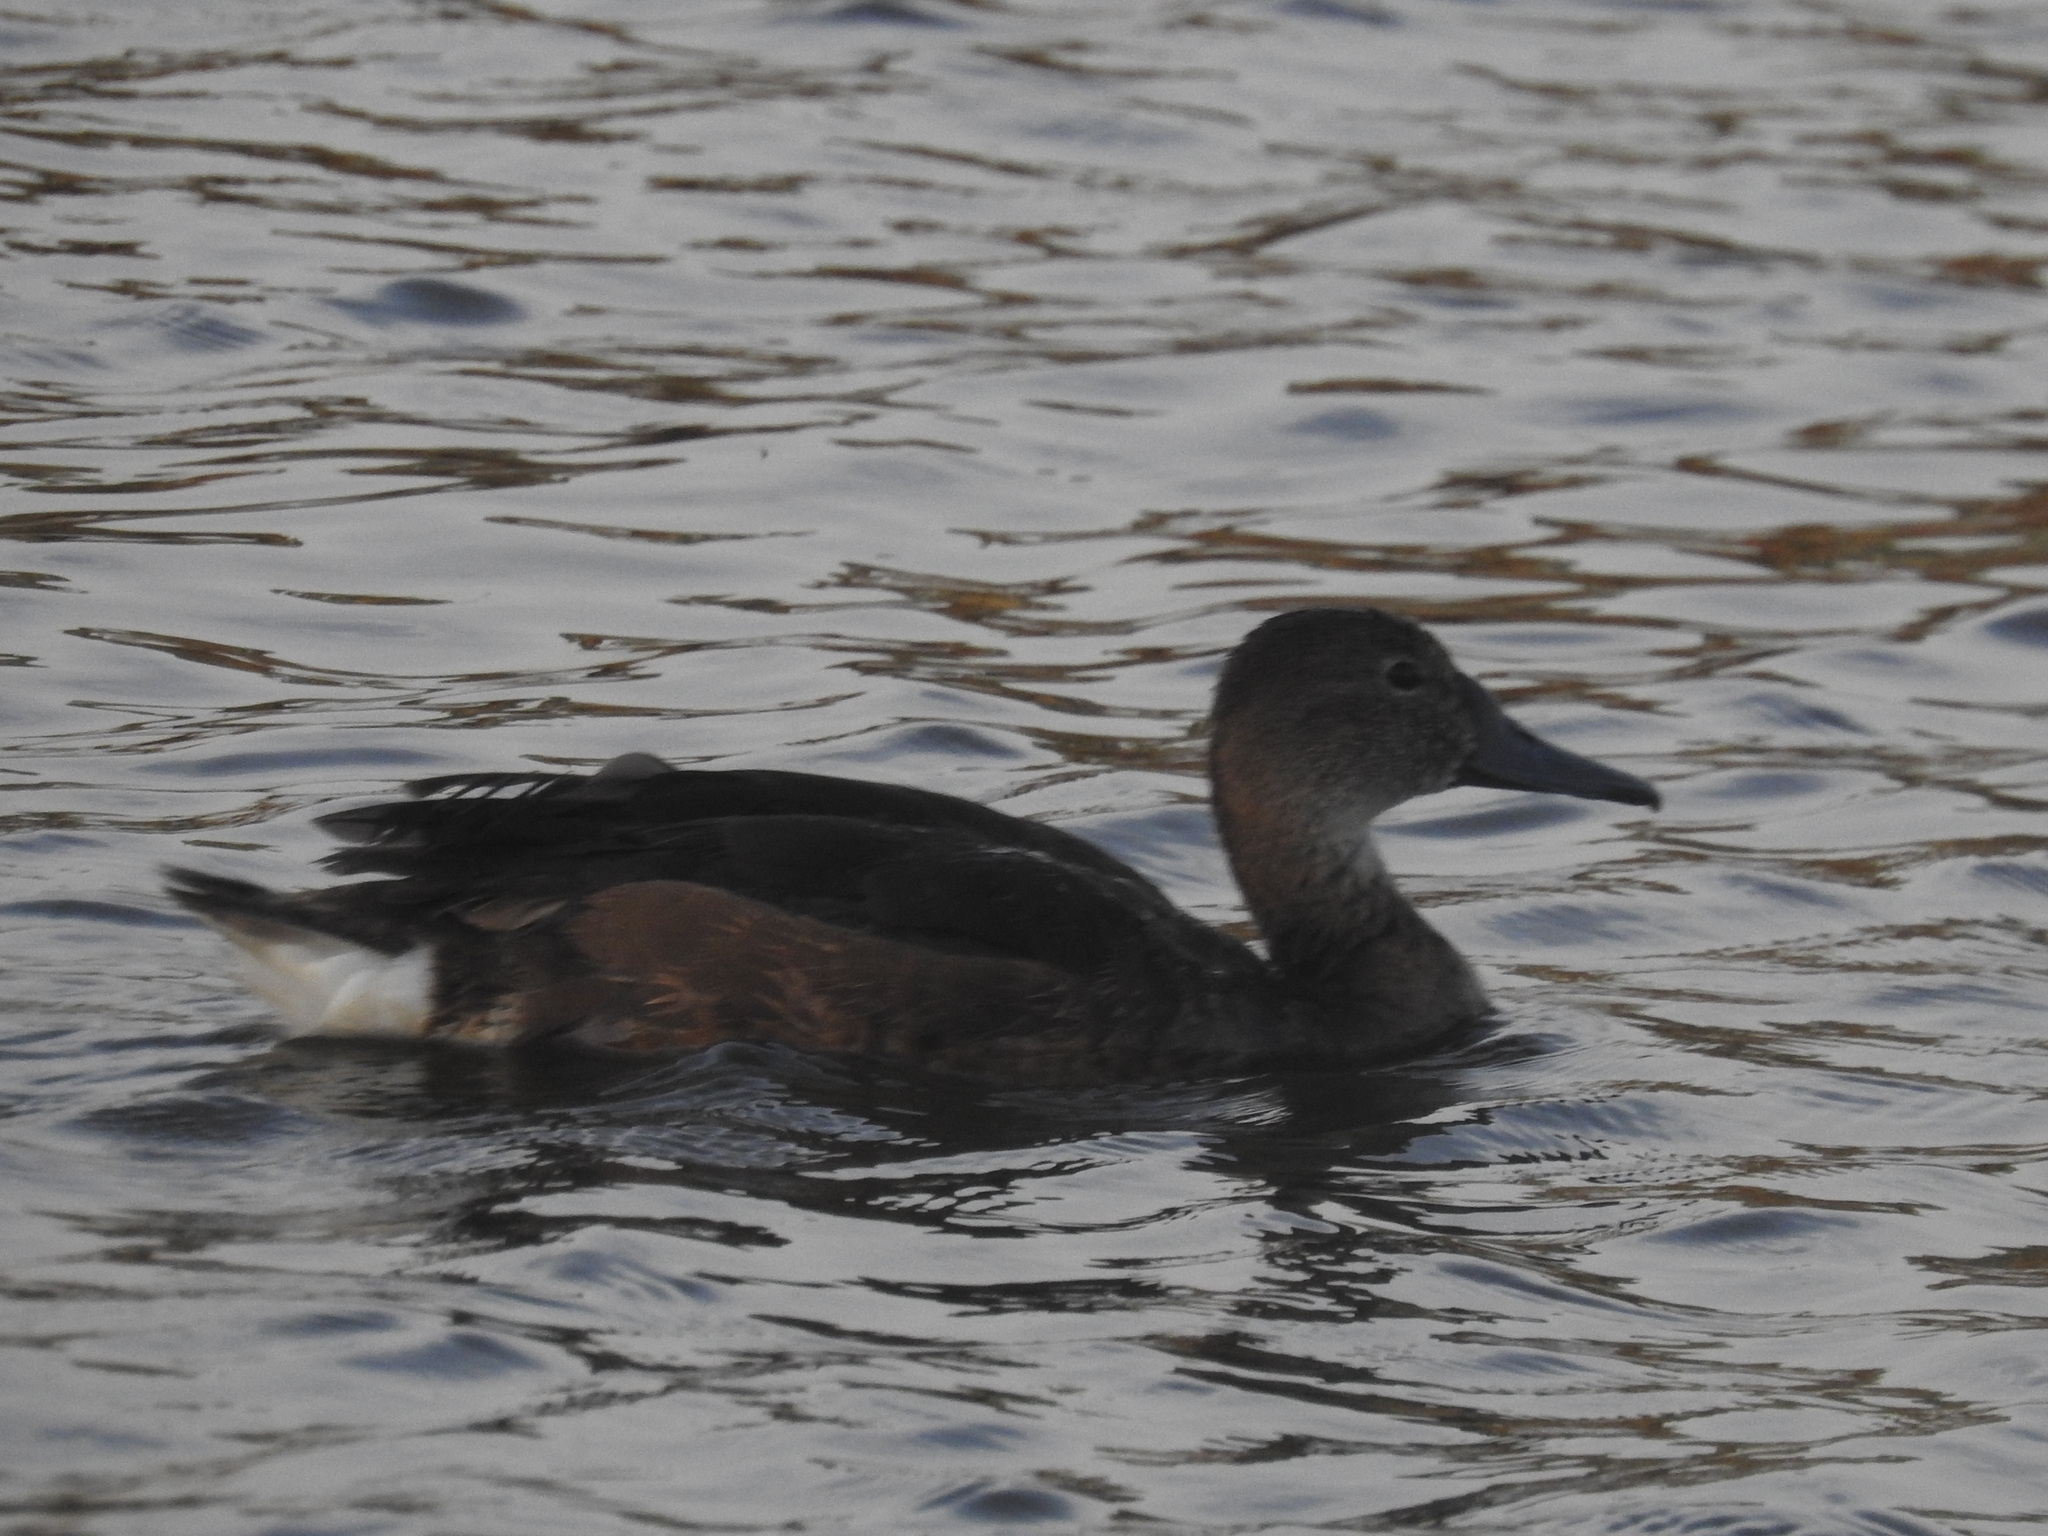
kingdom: Animalia
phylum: Chordata
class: Aves
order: Anseriformes
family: Anatidae
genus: Netta
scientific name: Netta peposaca
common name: Rosy-billed pochard
